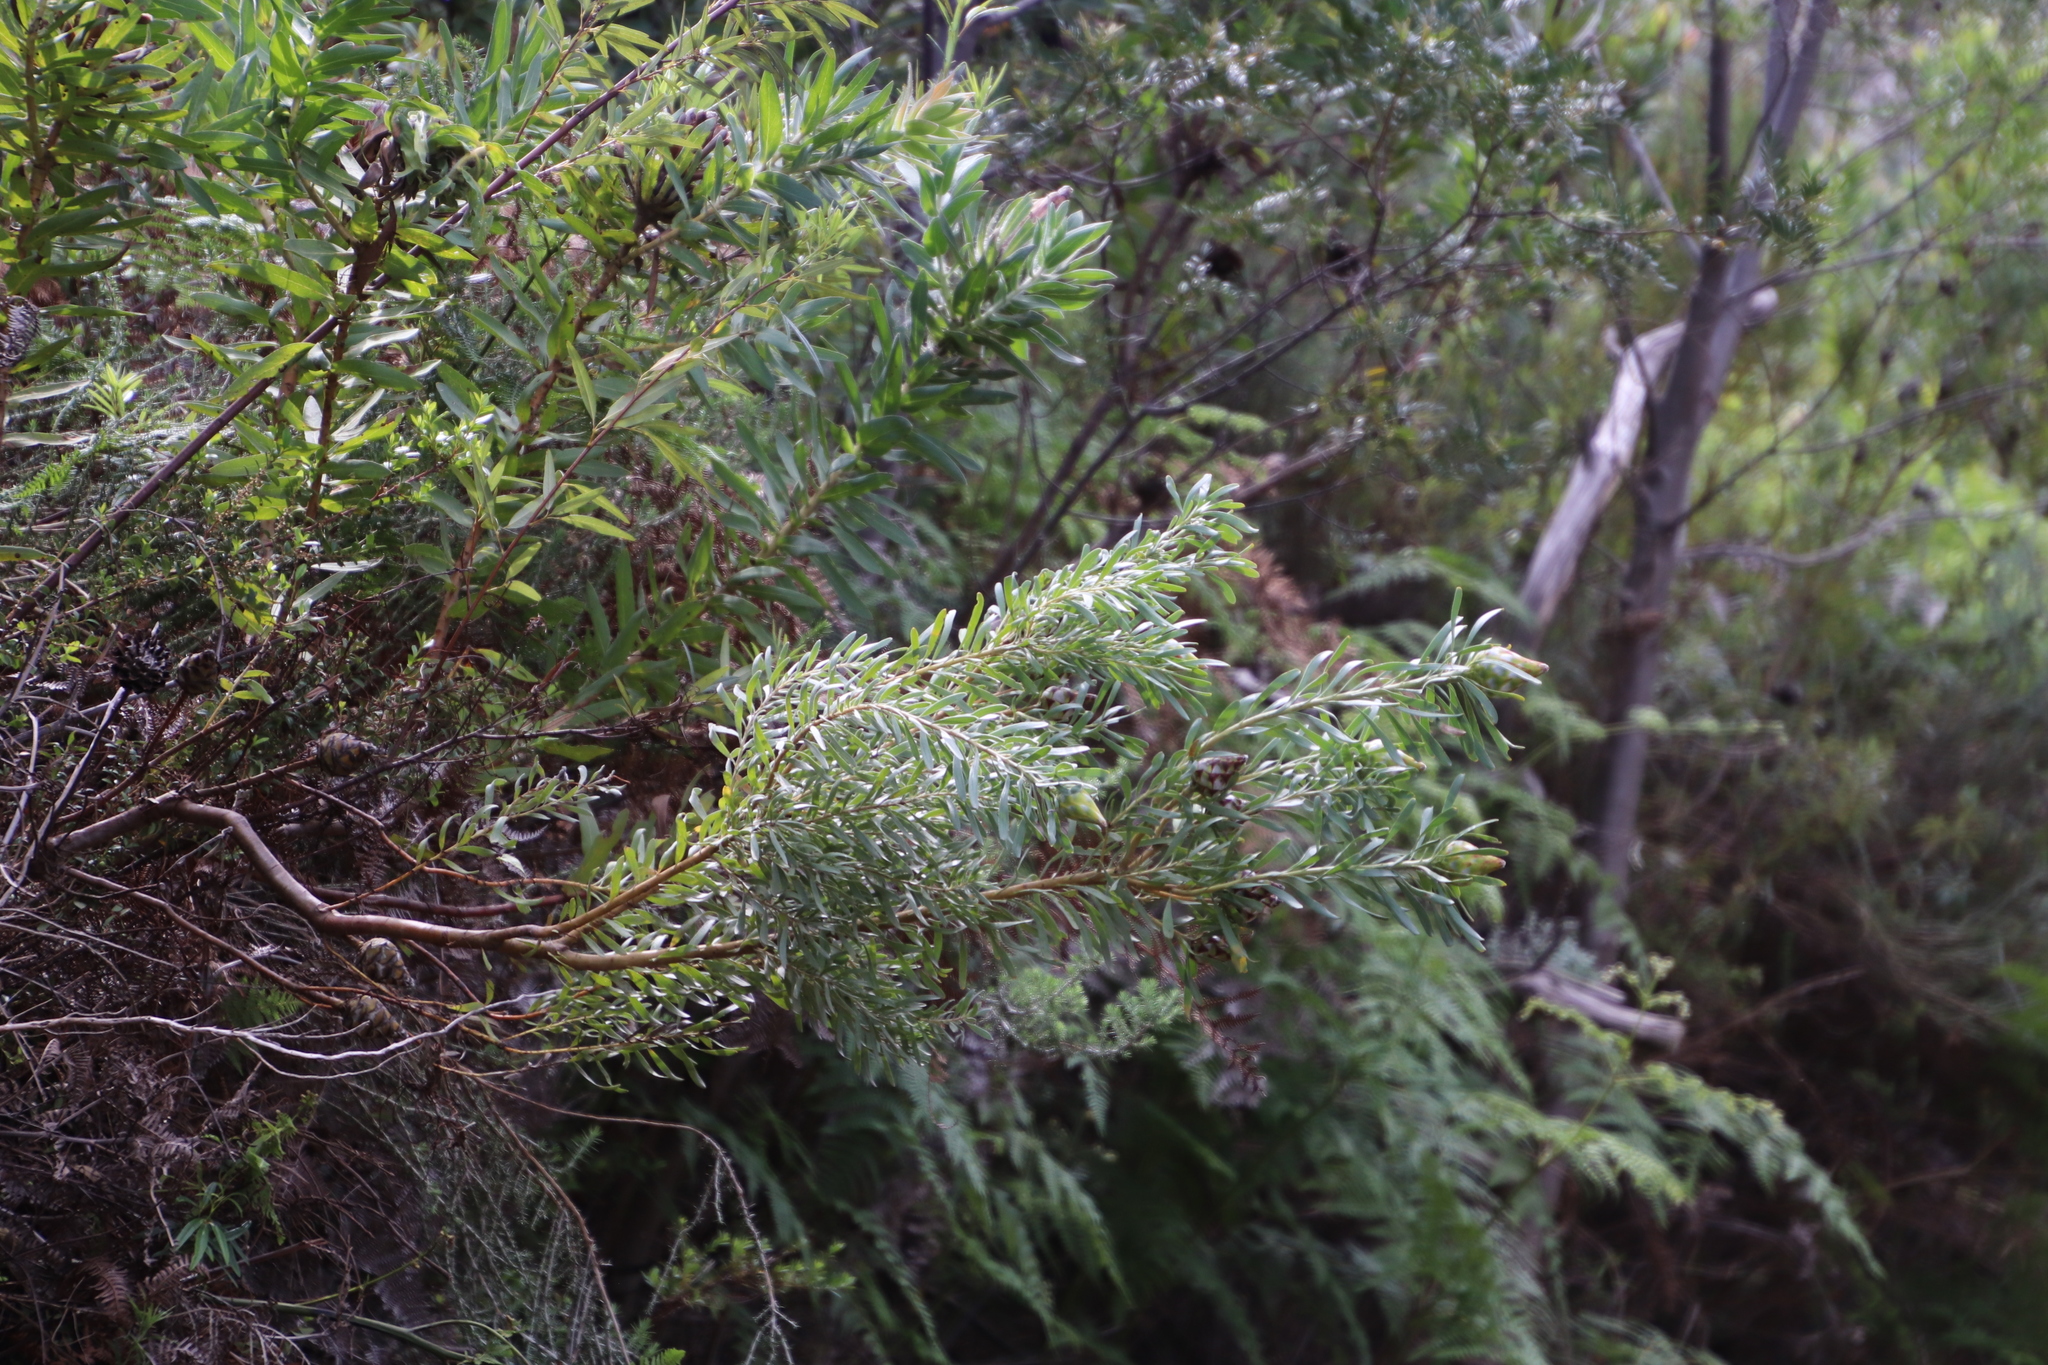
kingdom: Plantae
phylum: Tracheophyta
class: Magnoliopsida
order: Proteales
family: Proteaceae
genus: Leucadendron
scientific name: Leucadendron rubrum
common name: Spinning top
